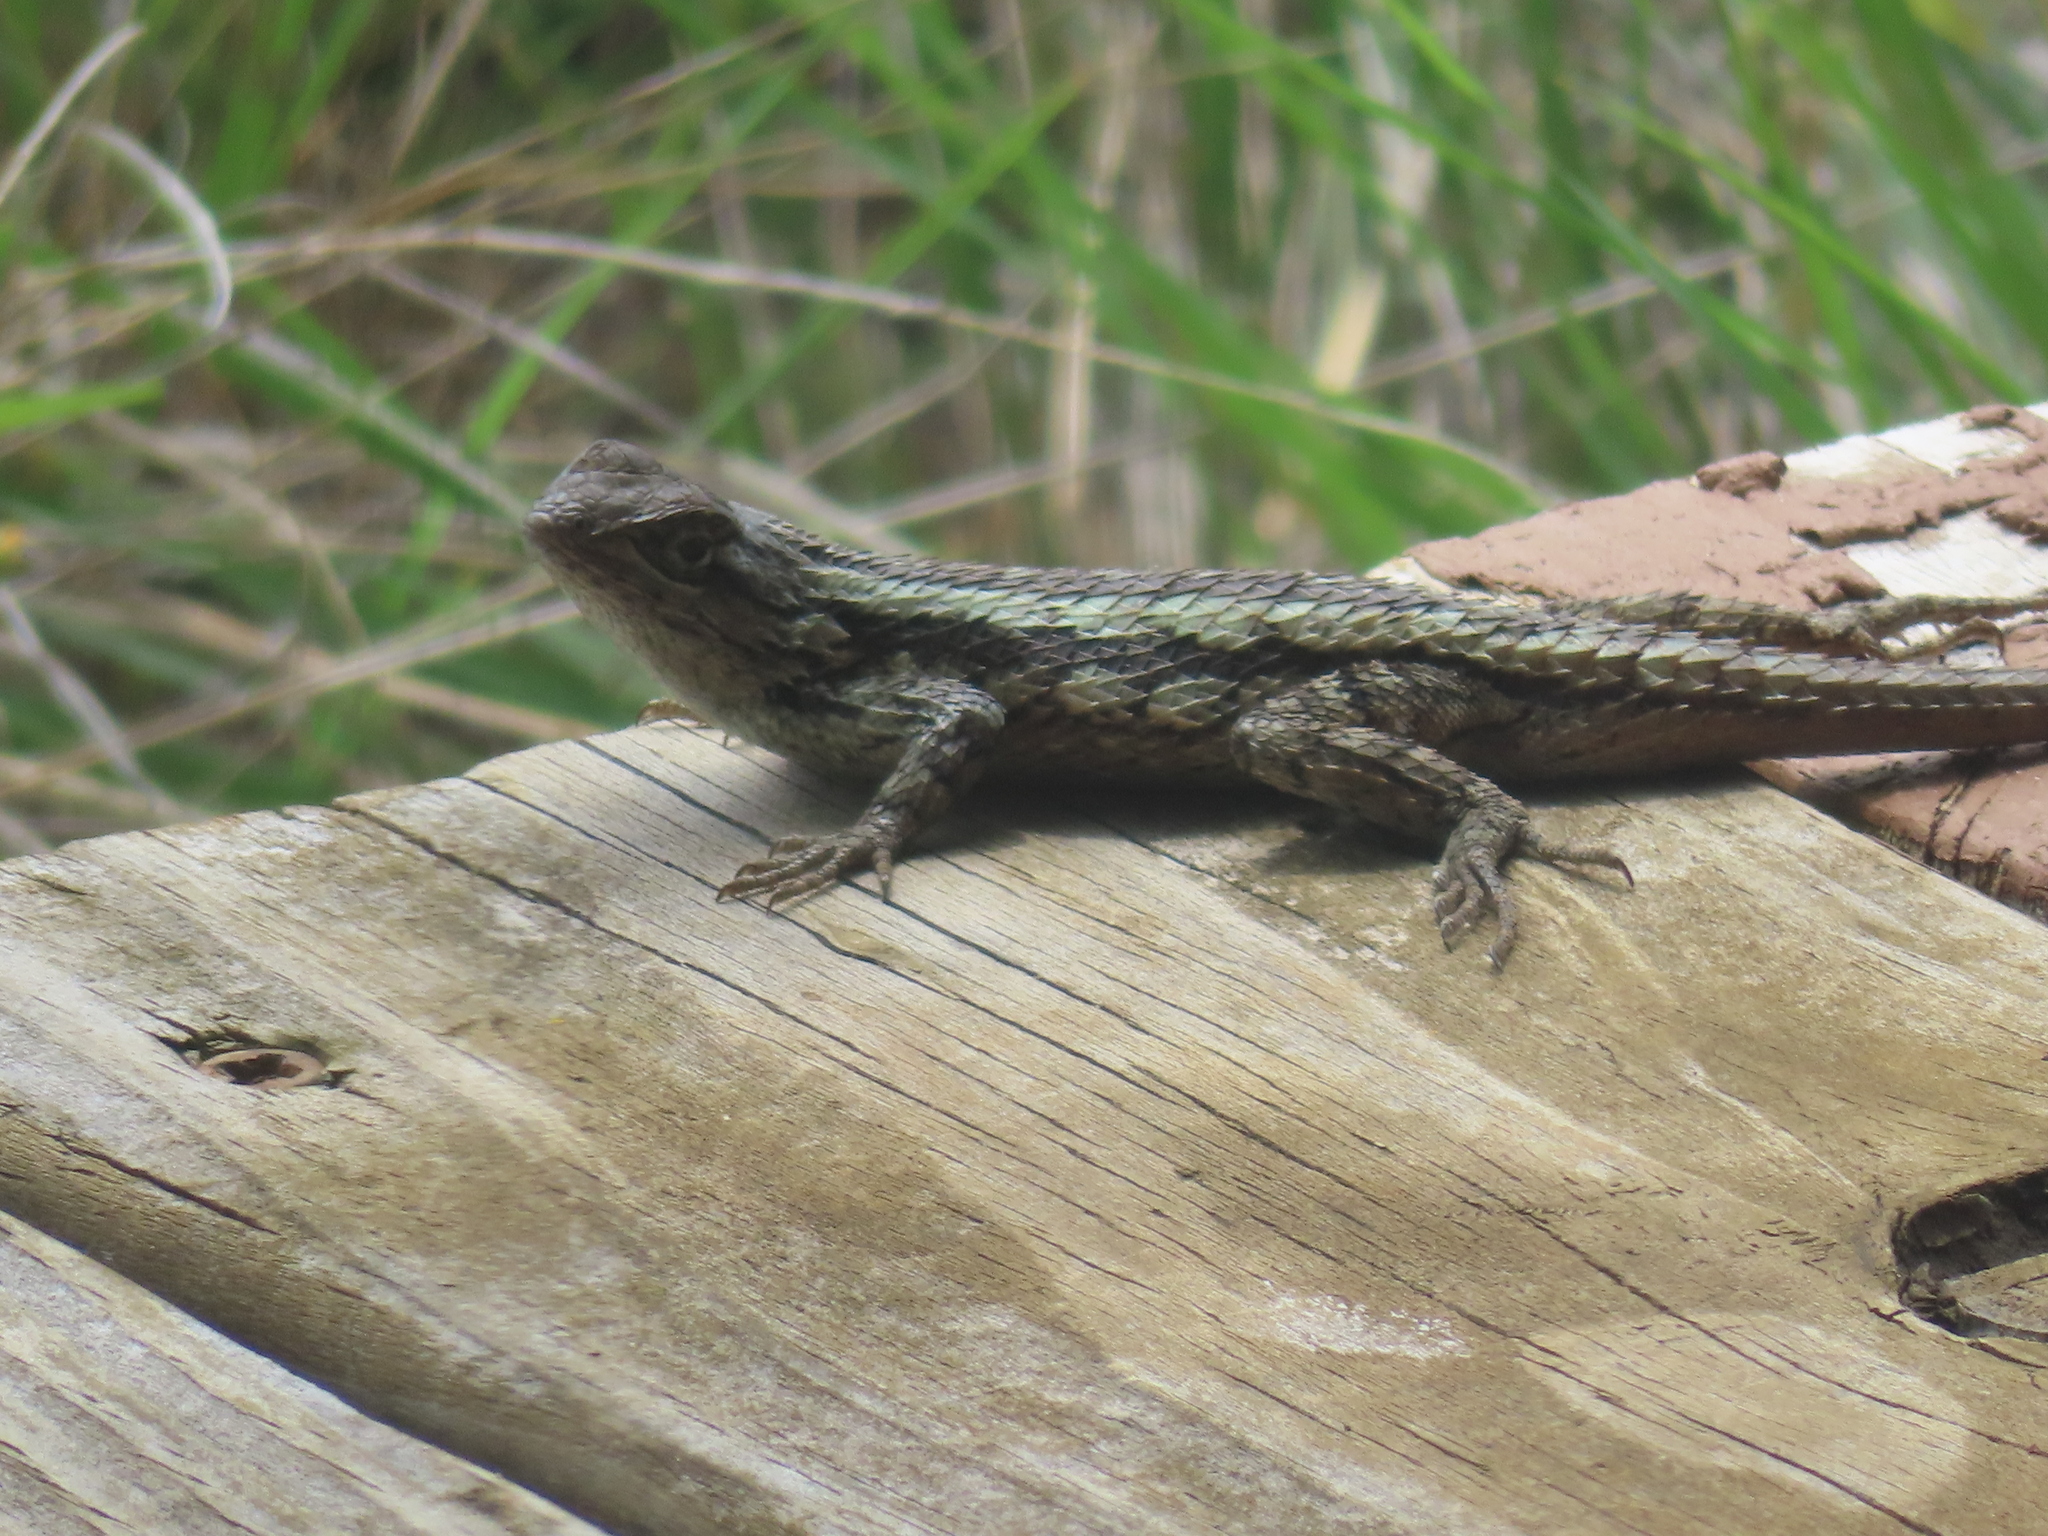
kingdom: Animalia
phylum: Chordata
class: Squamata
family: Phrynosomatidae
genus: Sceloporus
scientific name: Sceloporus olivaceus
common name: Texas spiny lizard
